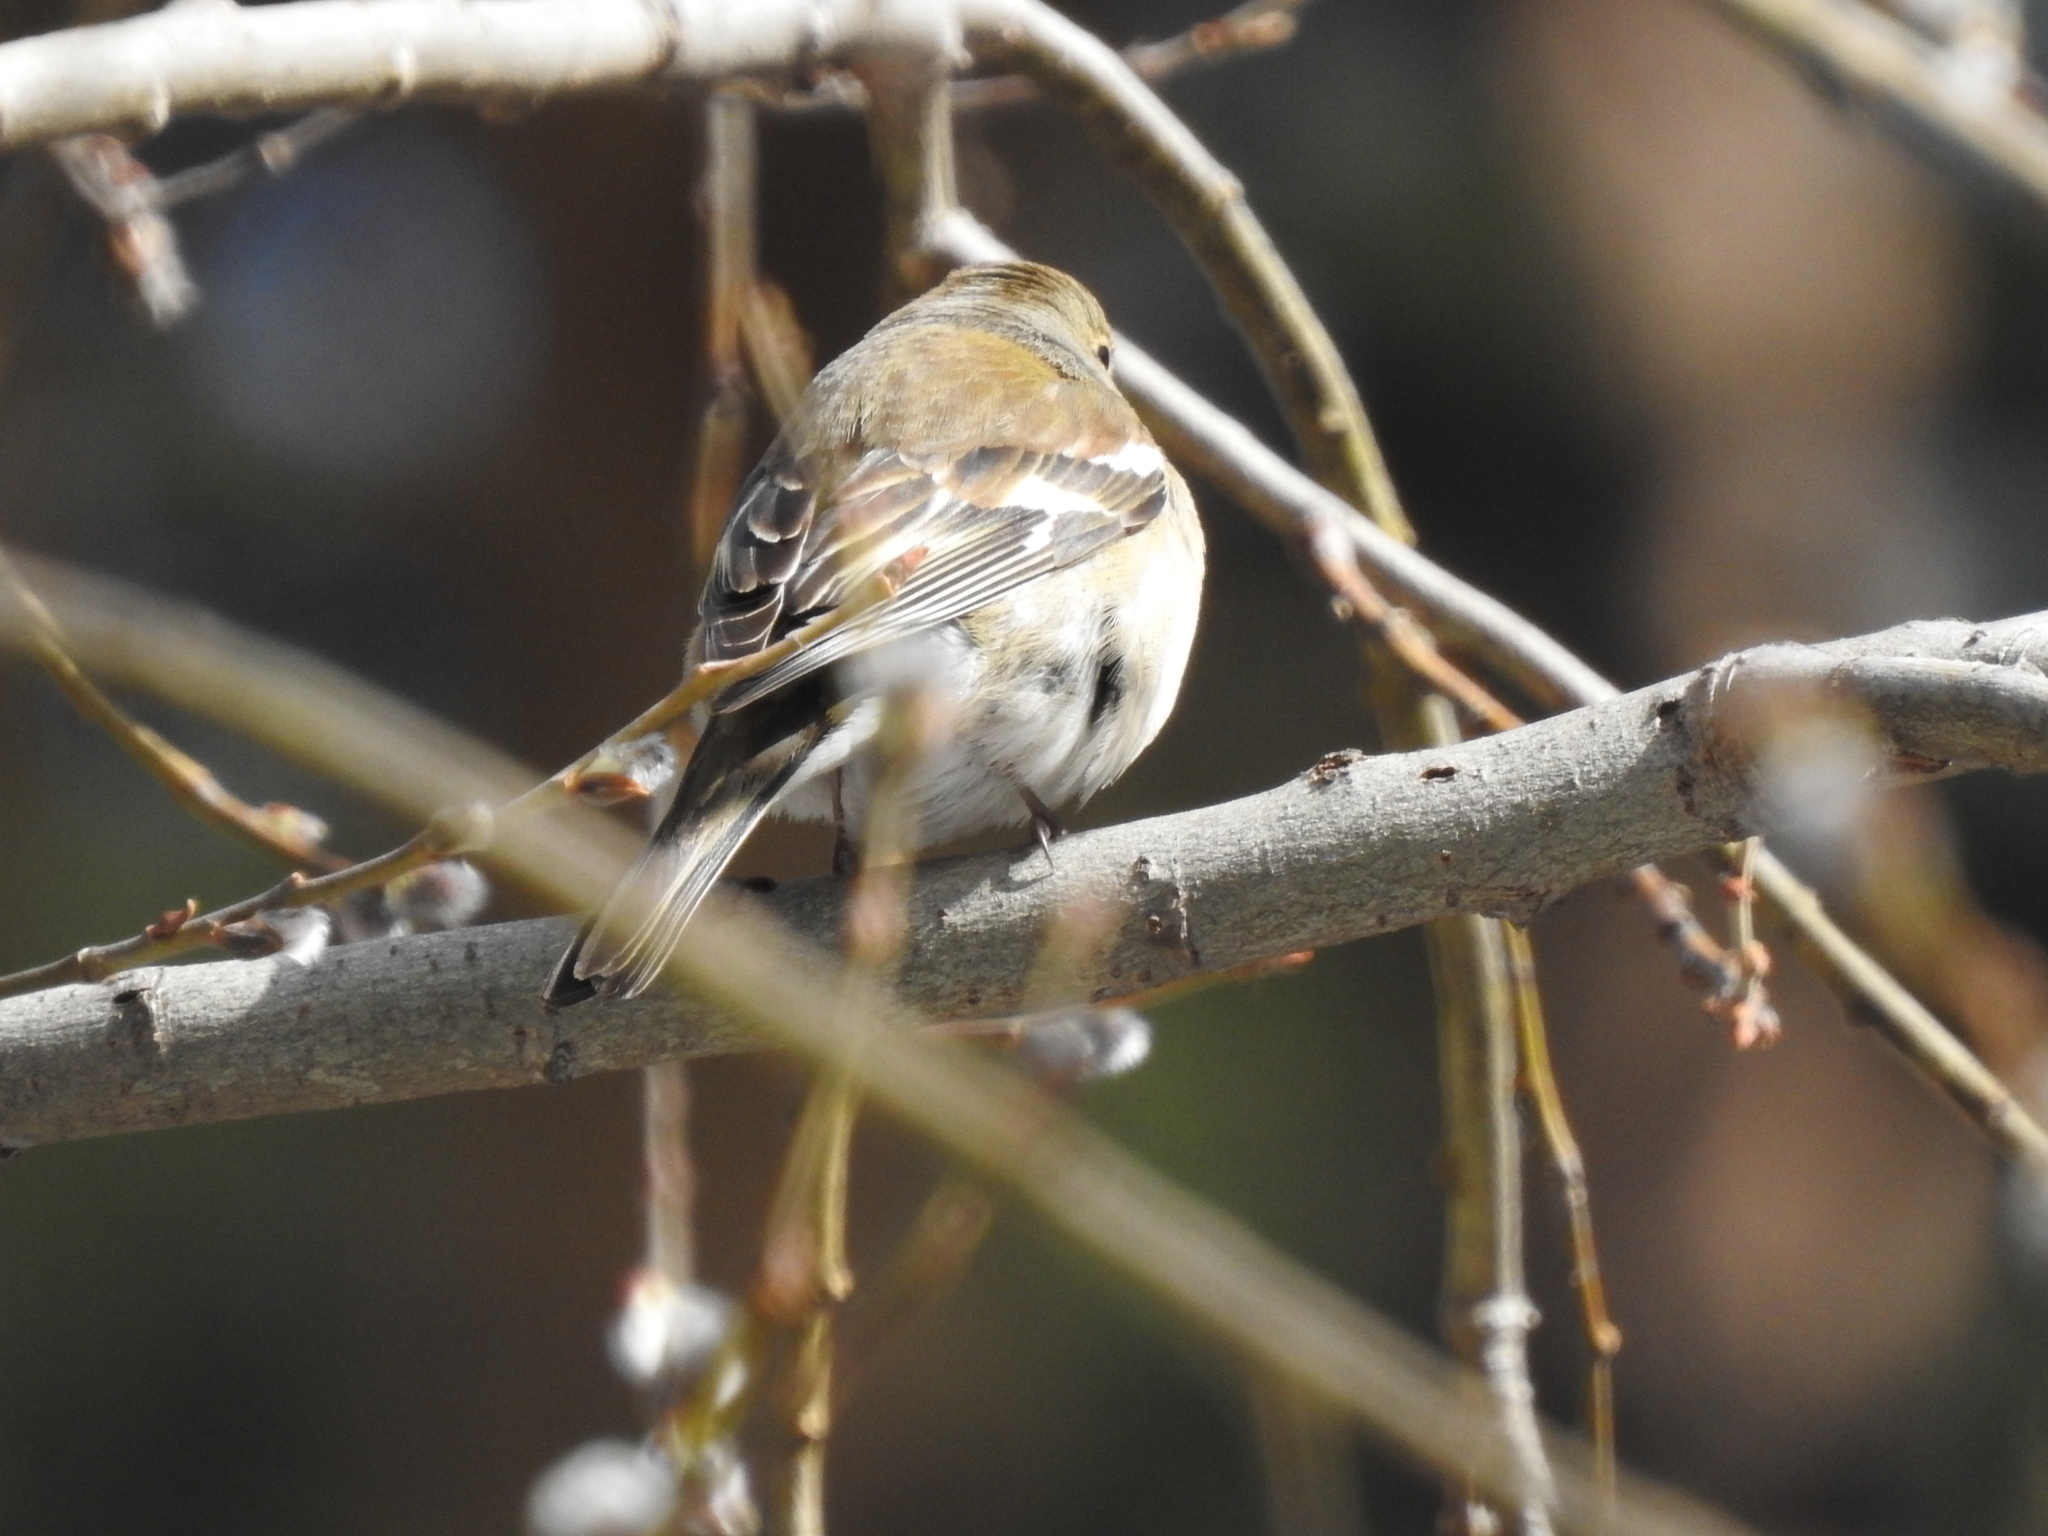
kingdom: Animalia
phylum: Chordata
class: Aves
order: Passeriformes
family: Fringillidae
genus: Fringilla
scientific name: Fringilla coelebs
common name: Common chaffinch
